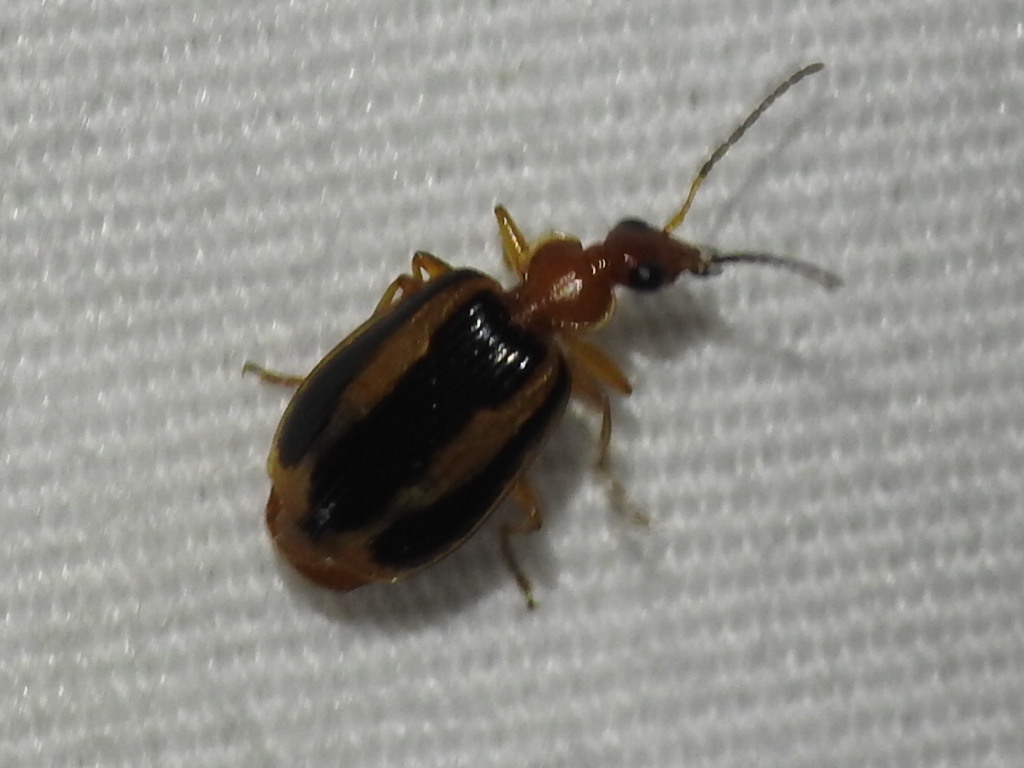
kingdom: Animalia
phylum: Arthropoda
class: Insecta
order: Coleoptera
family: Carabidae
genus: Lebia
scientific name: Lebia vittata
